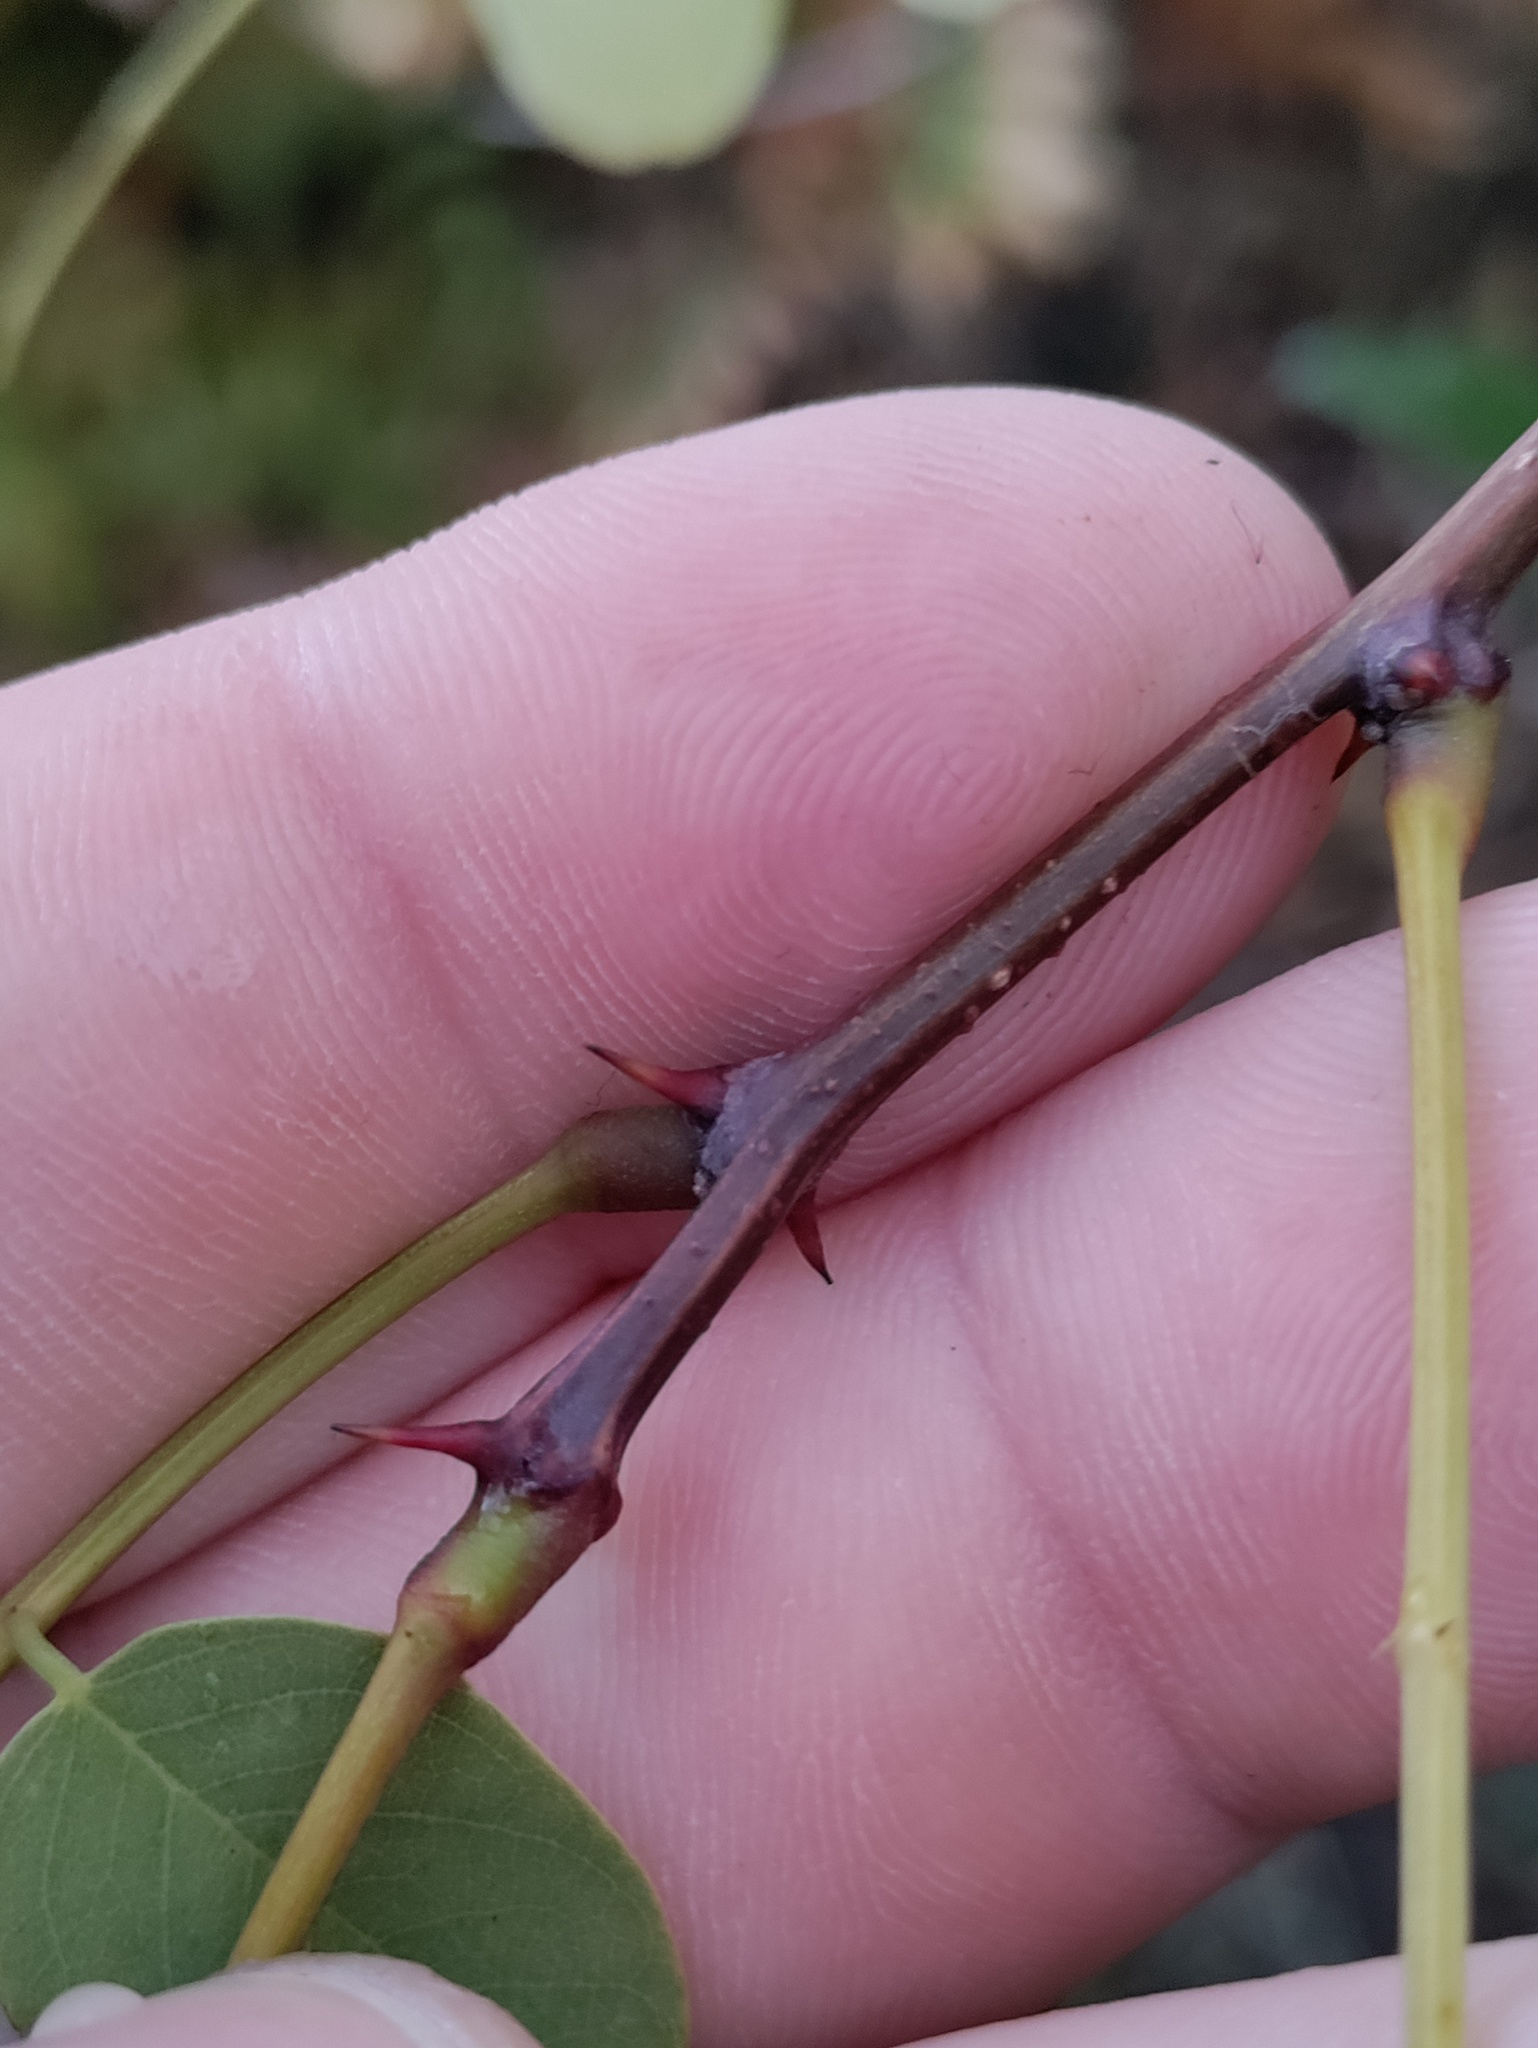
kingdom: Plantae
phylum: Tracheophyta
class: Magnoliopsida
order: Fabales
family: Fabaceae
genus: Robinia
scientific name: Robinia pseudoacacia
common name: Black locust
